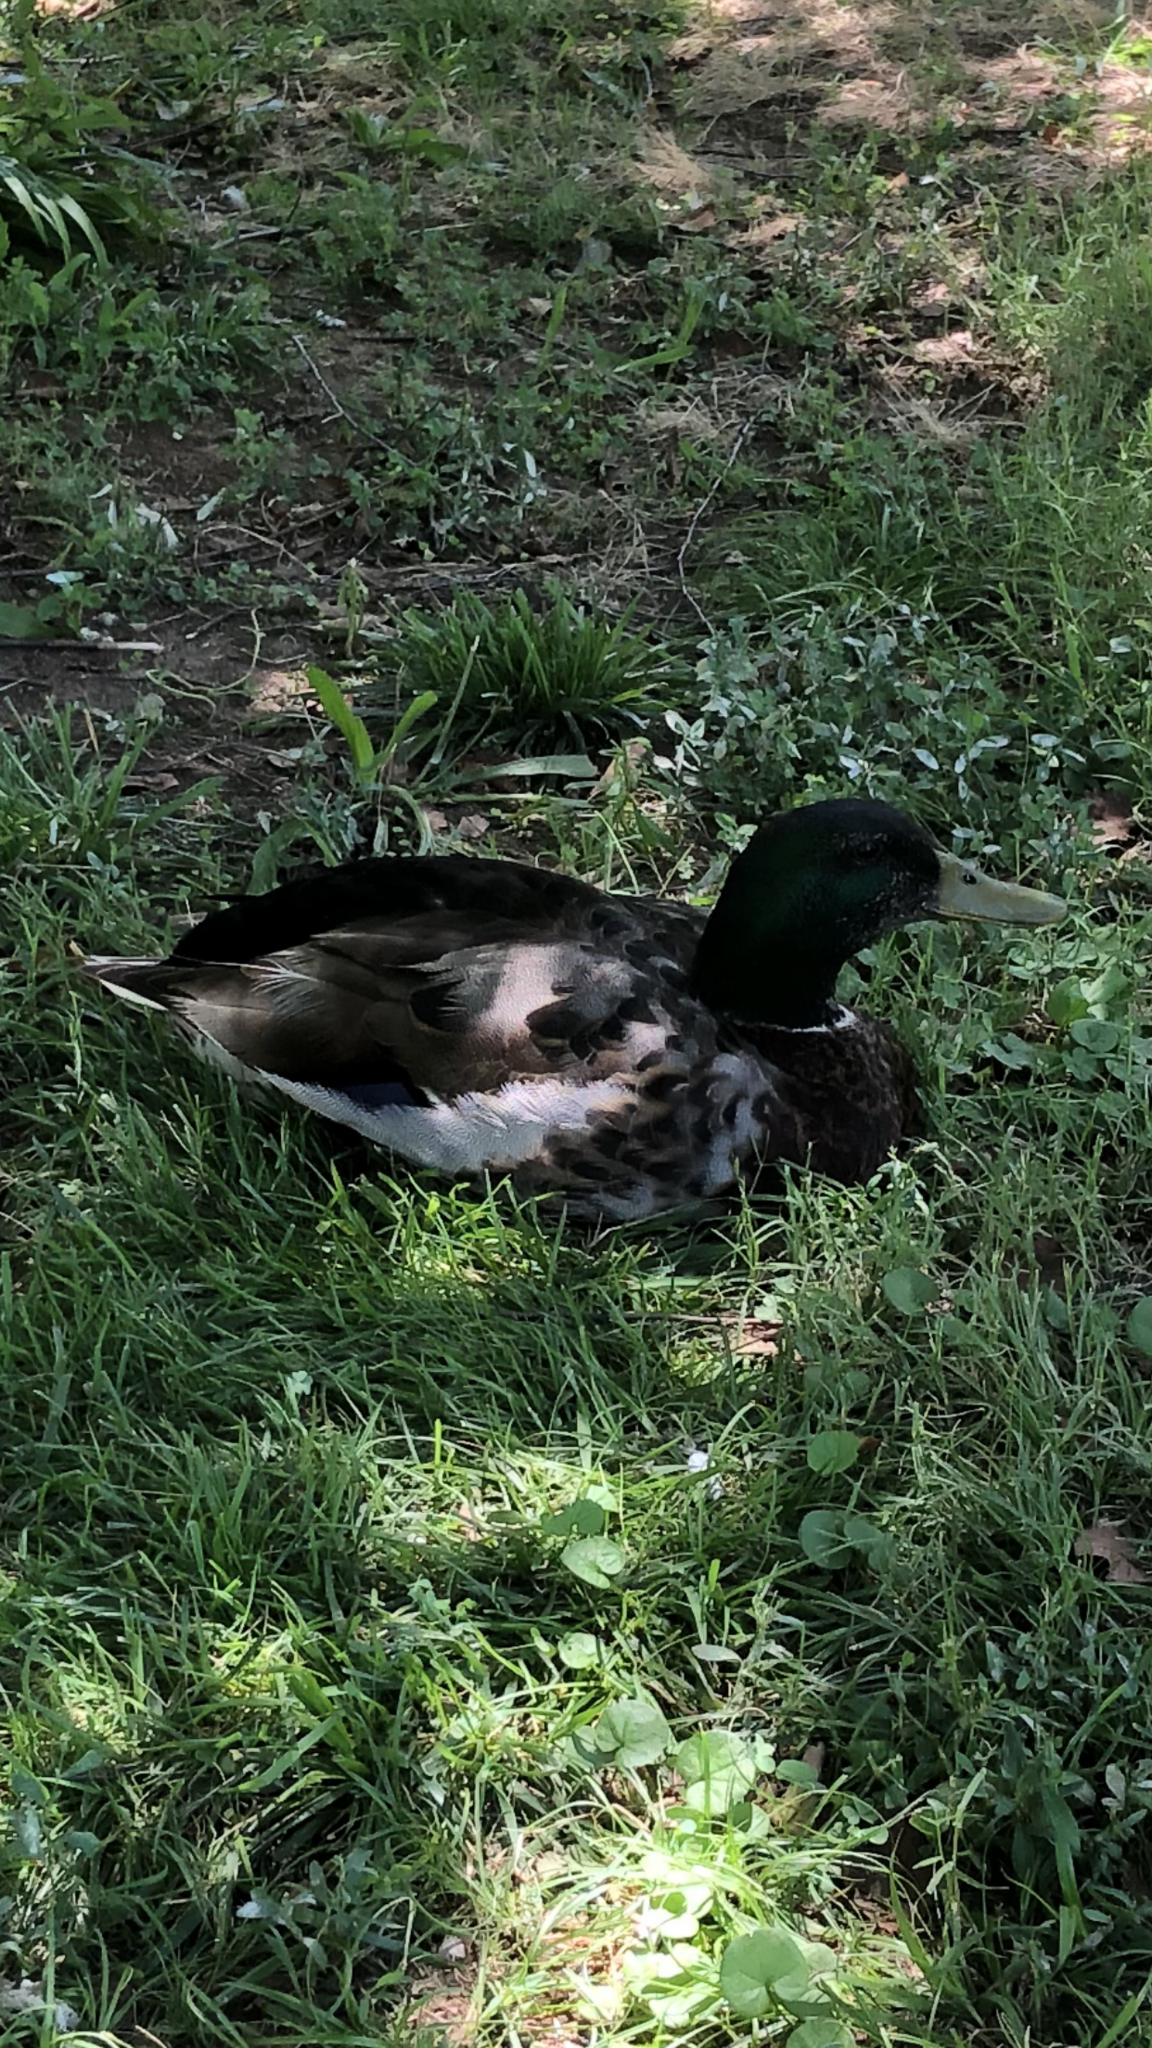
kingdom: Animalia
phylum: Chordata
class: Aves
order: Anseriformes
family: Anatidae
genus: Anas
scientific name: Anas platyrhynchos
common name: Mallard
